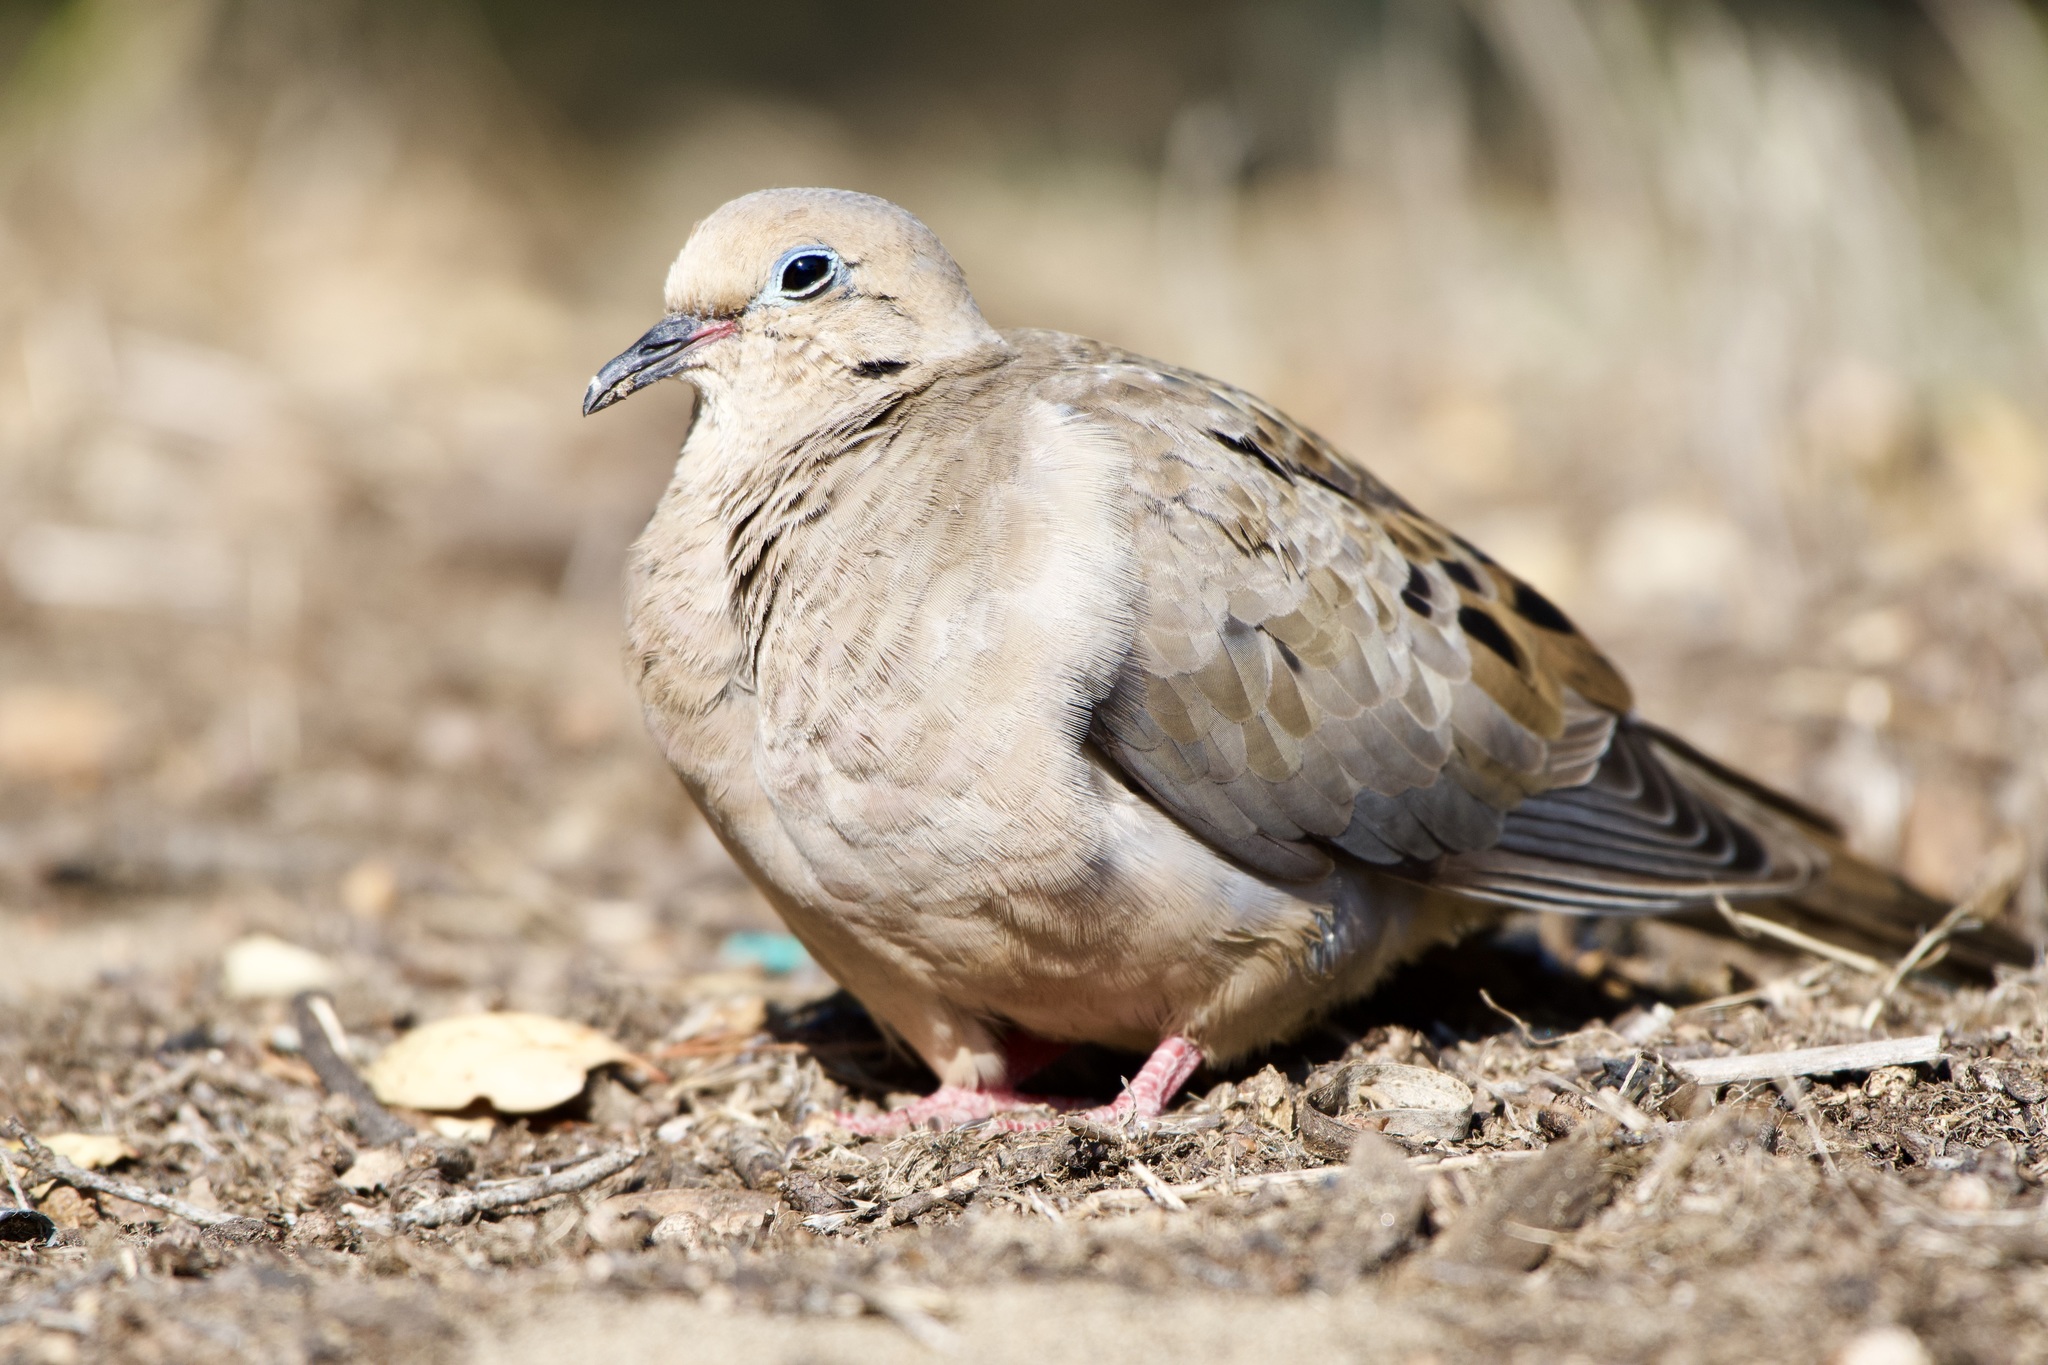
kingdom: Animalia
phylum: Chordata
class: Aves
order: Columbiformes
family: Columbidae
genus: Zenaida
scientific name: Zenaida macroura
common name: Mourning dove
